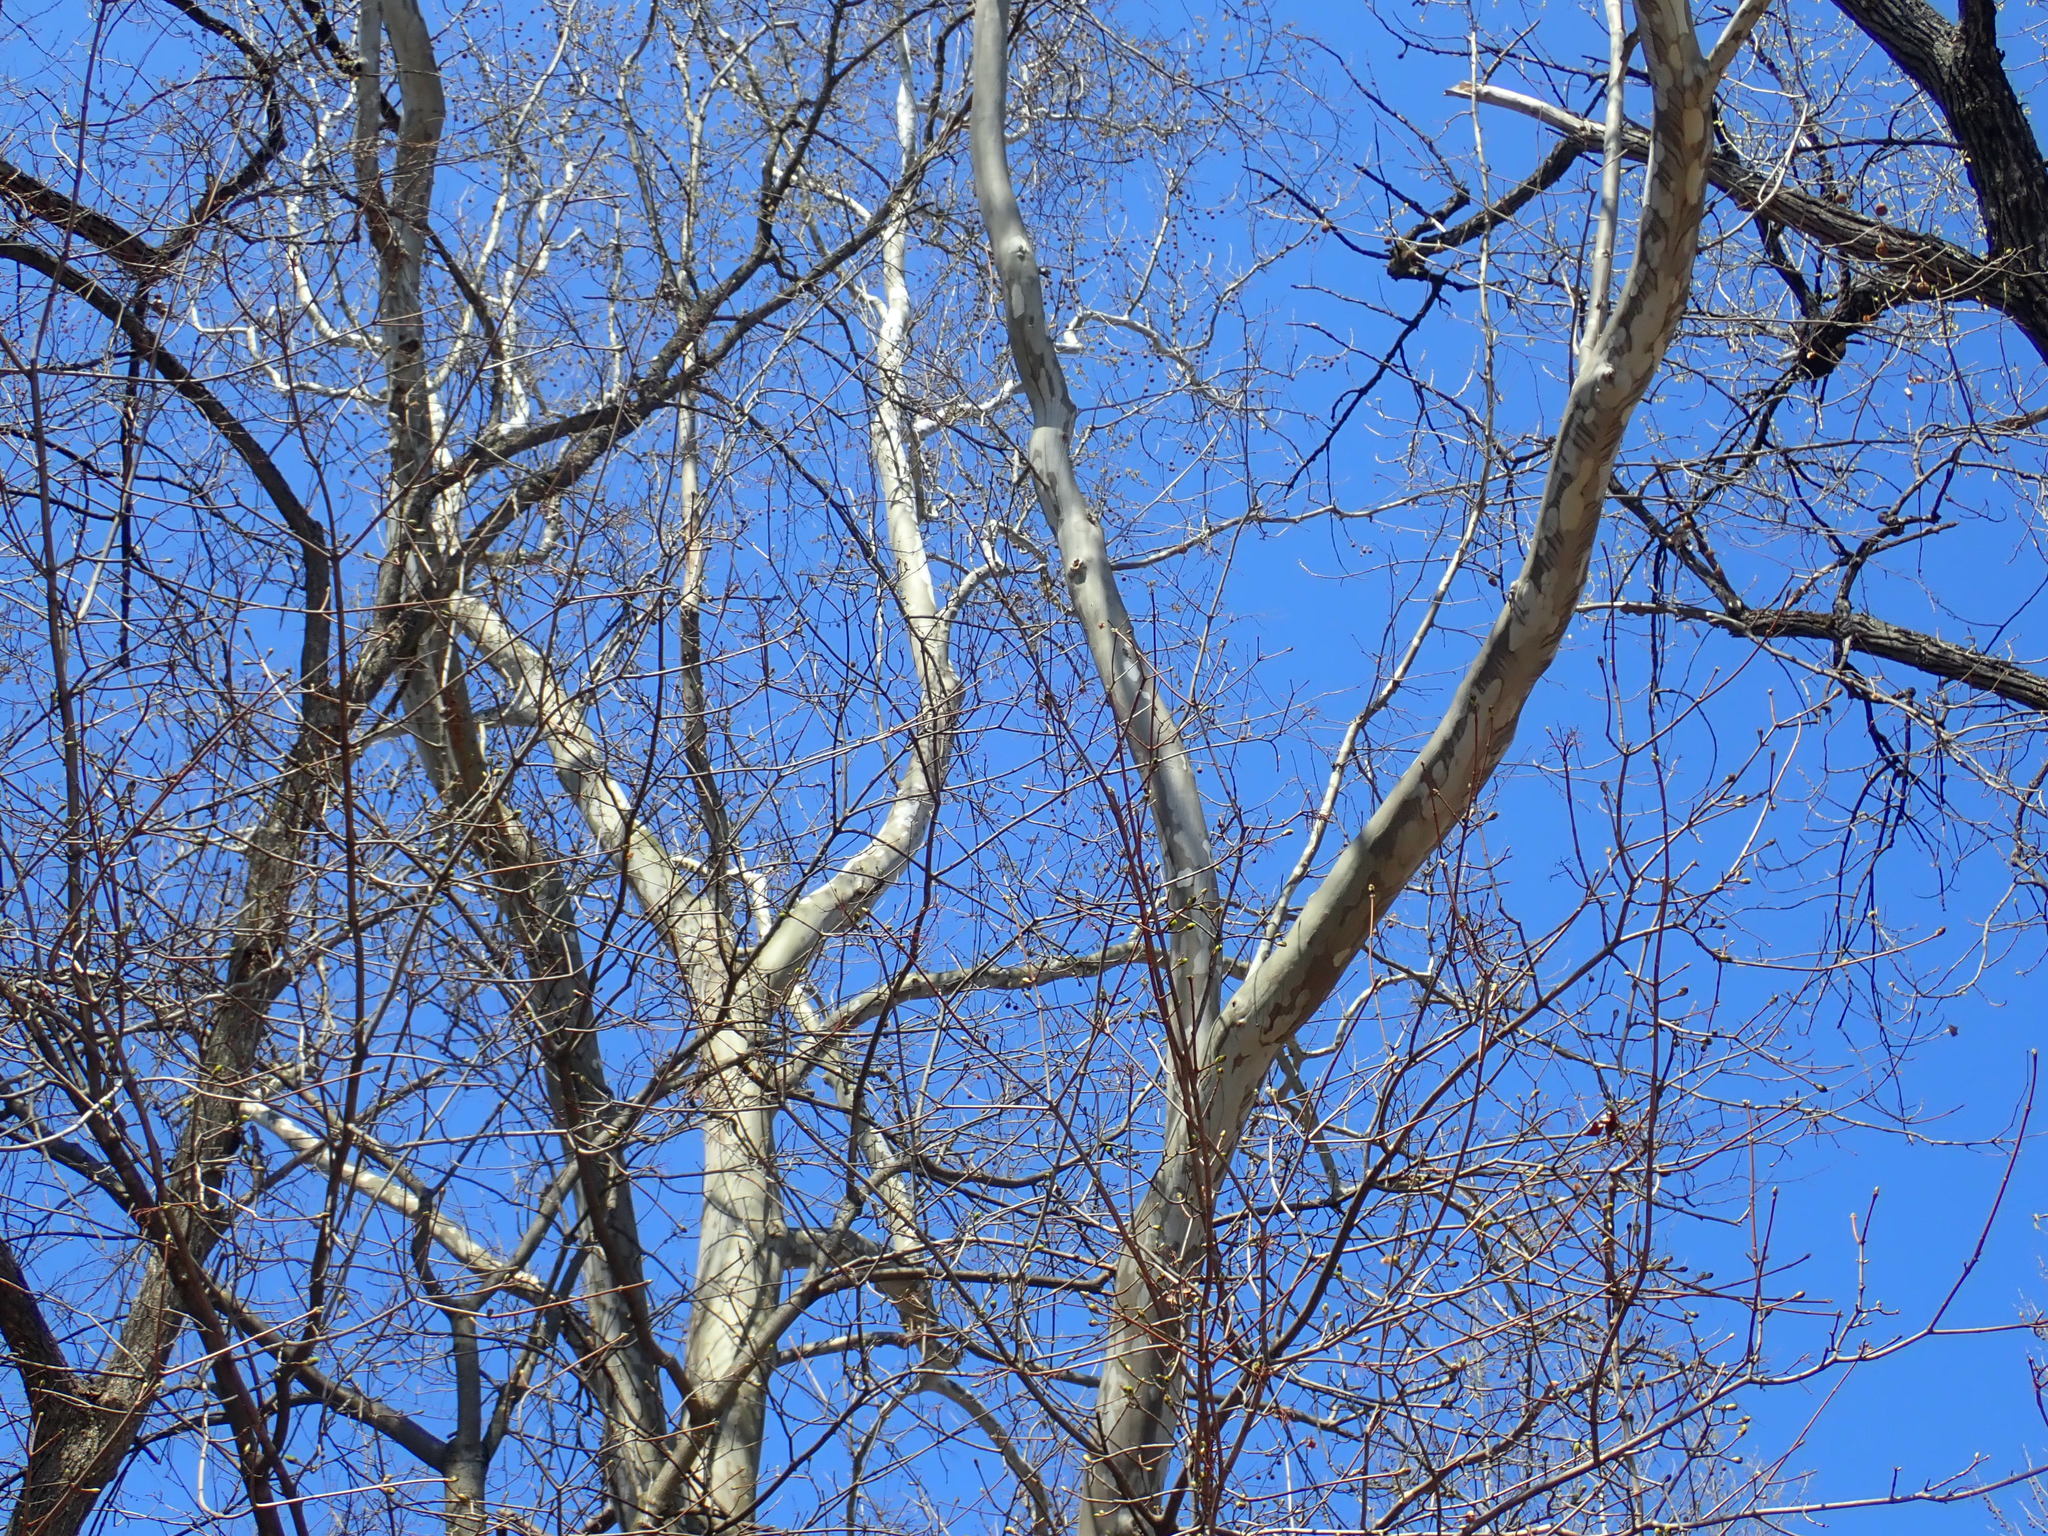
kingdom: Plantae
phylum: Tracheophyta
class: Magnoliopsida
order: Proteales
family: Platanaceae
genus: Platanus
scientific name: Platanus occidentalis
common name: American sycamore
